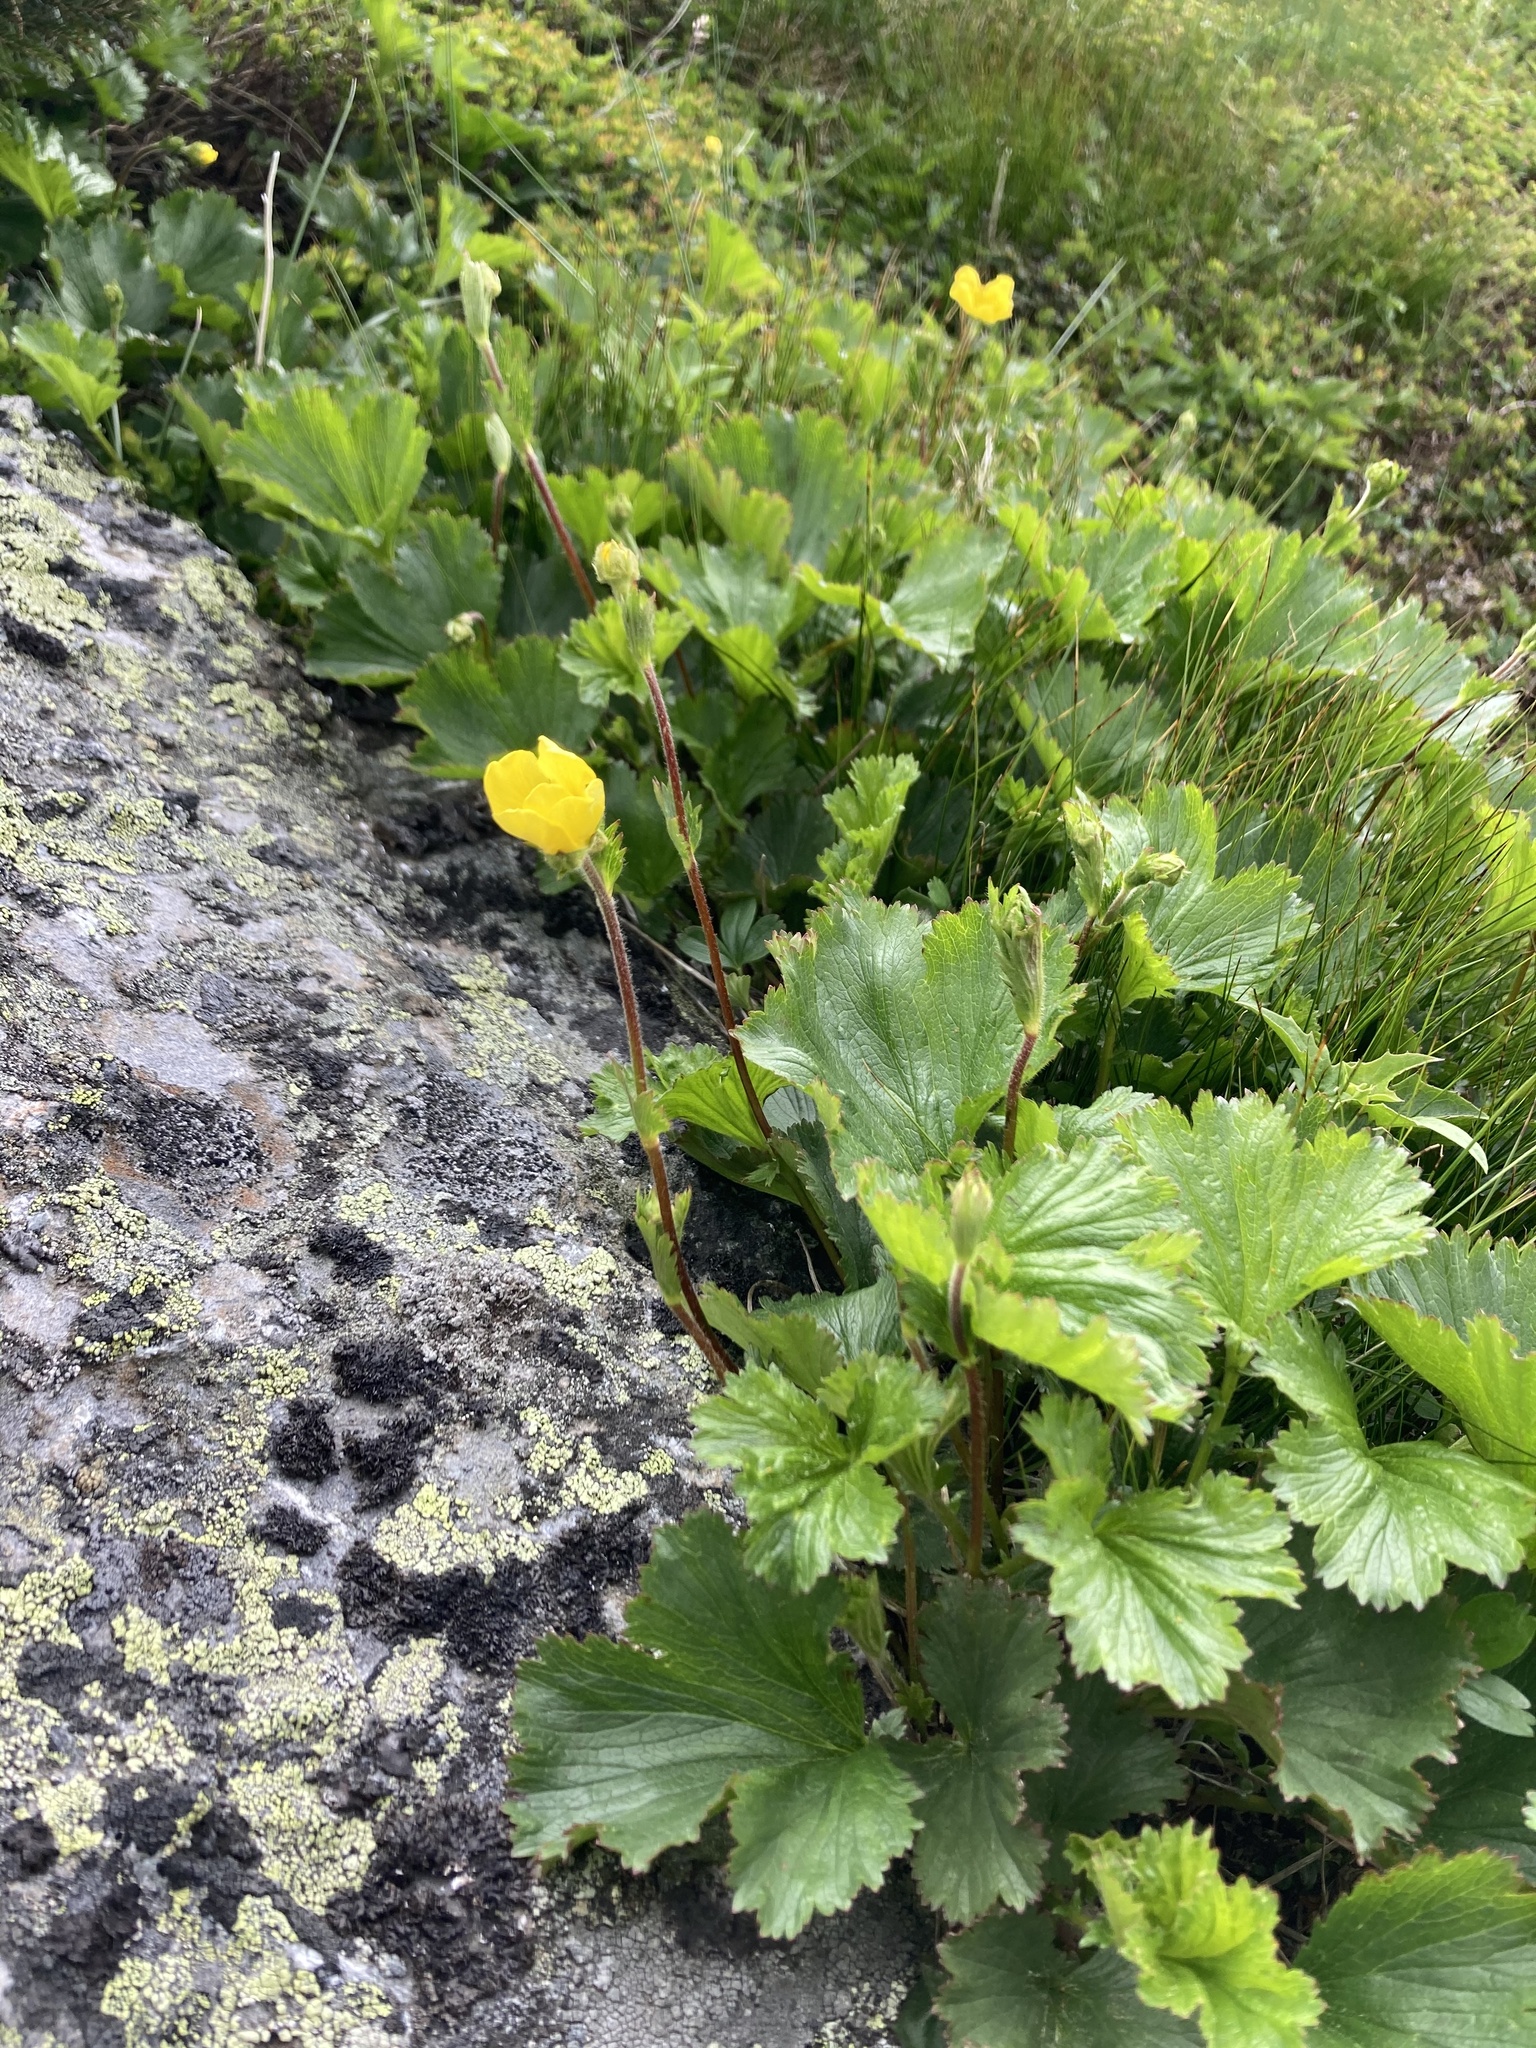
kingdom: Plantae
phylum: Tracheophyta
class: Magnoliopsida
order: Rosales
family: Rosaceae
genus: Geum
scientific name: Geum peckii
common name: Eastern mountain avens
